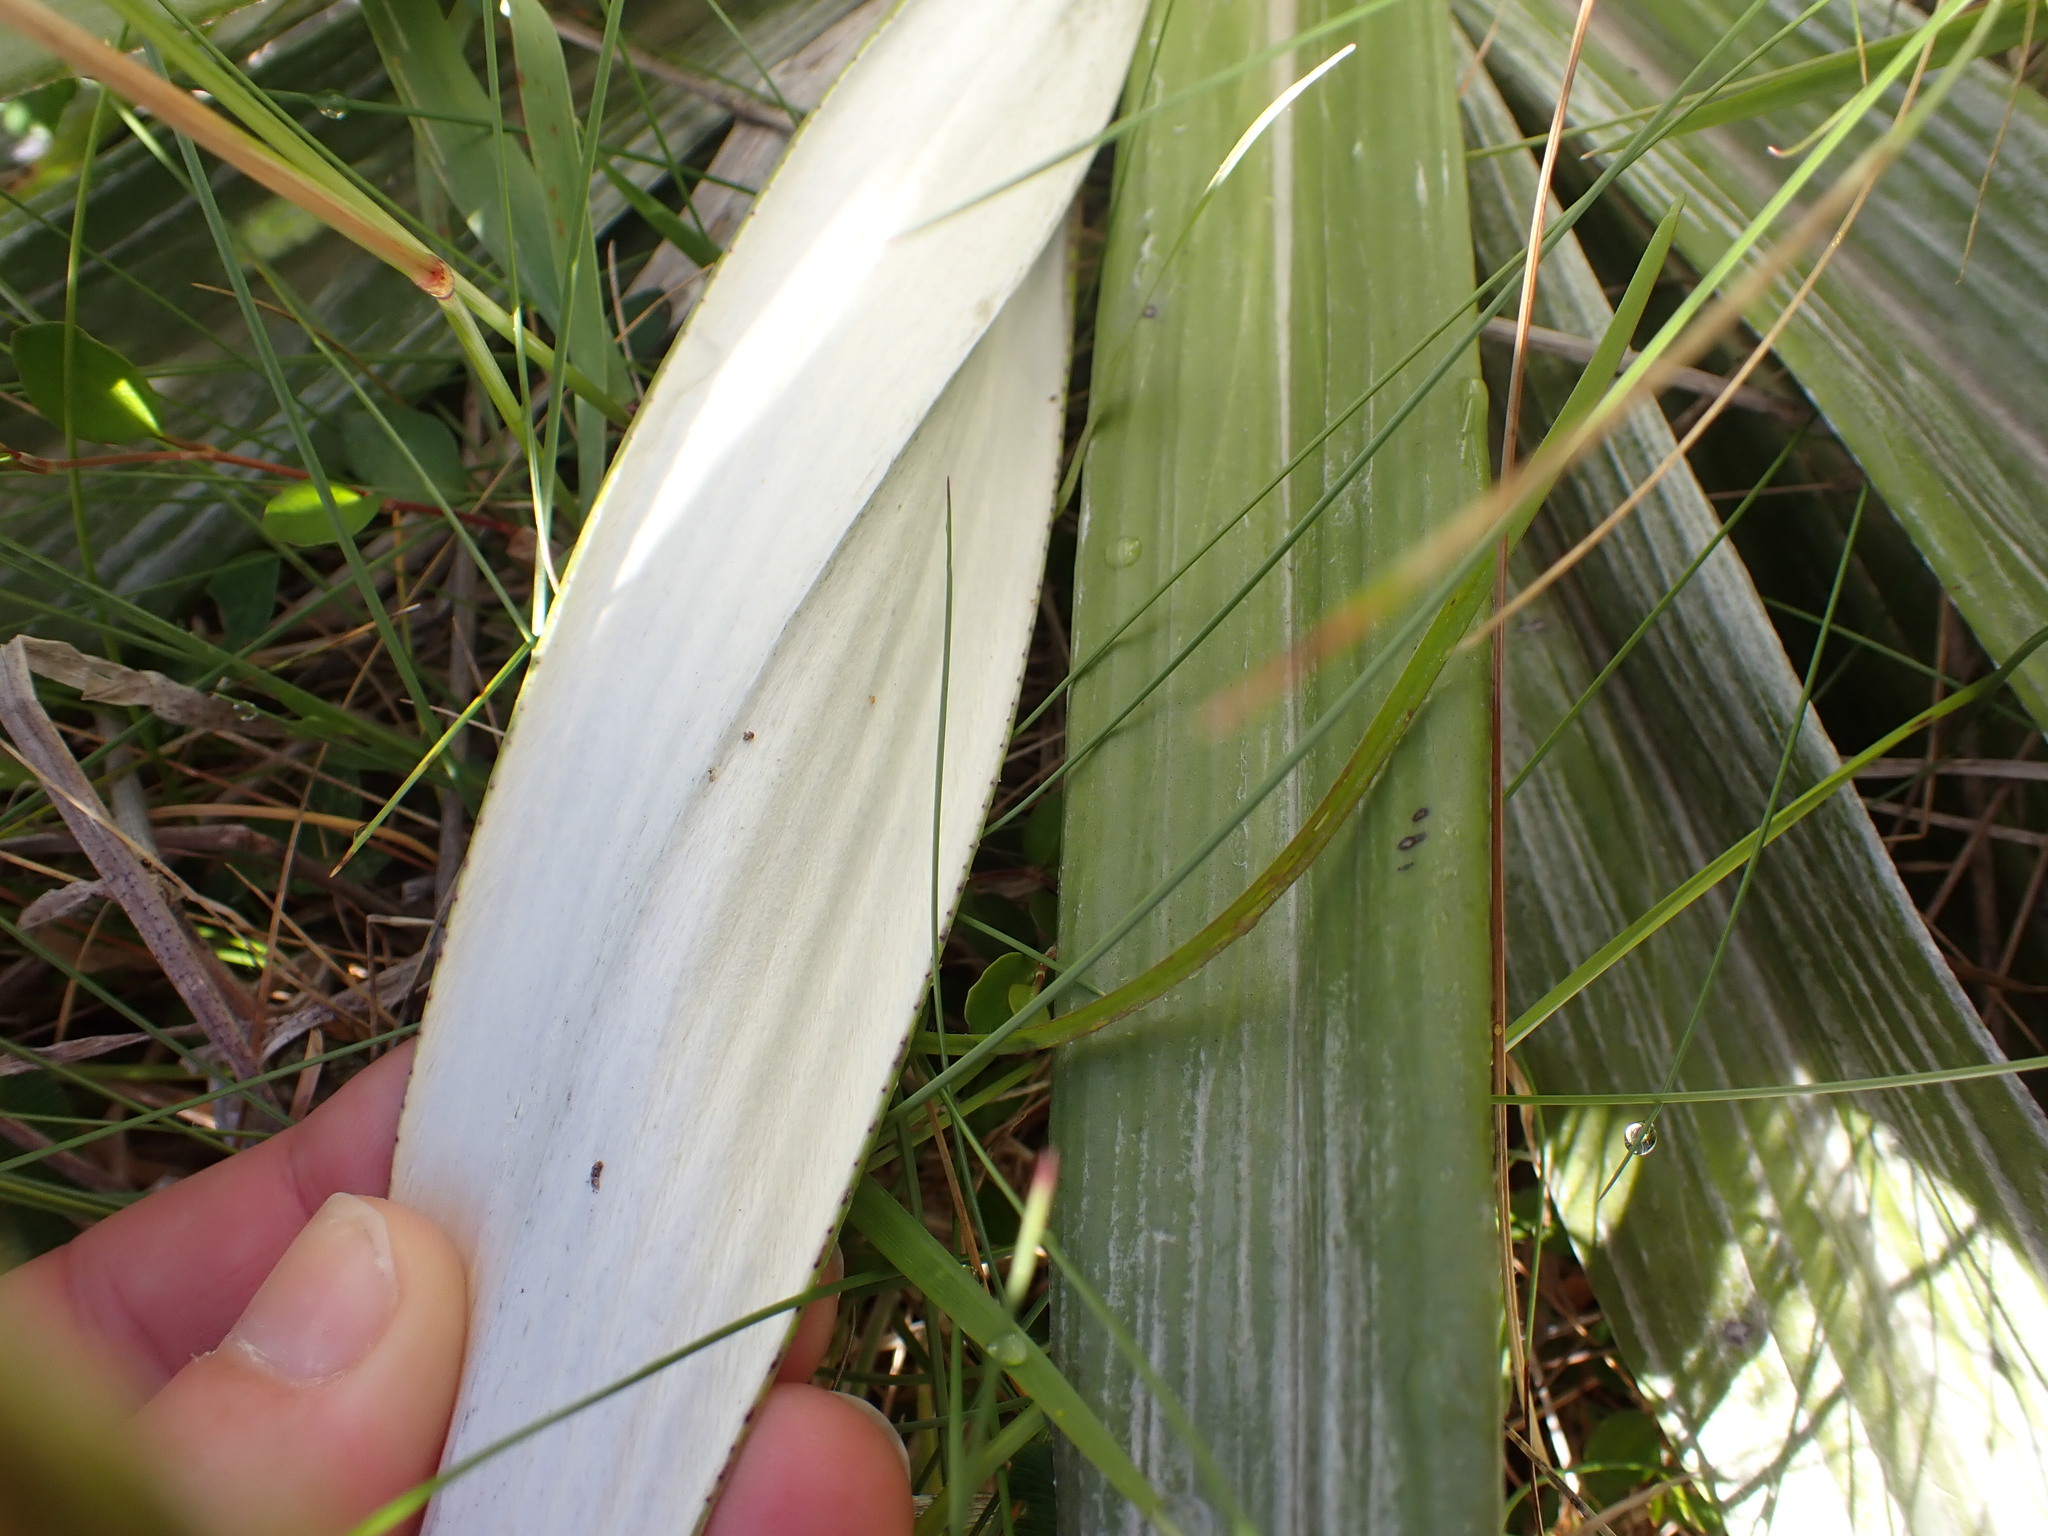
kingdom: Plantae
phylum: Tracheophyta
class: Magnoliopsida
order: Asterales
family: Asteraceae
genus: Celmisia
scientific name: Celmisia semicordata
